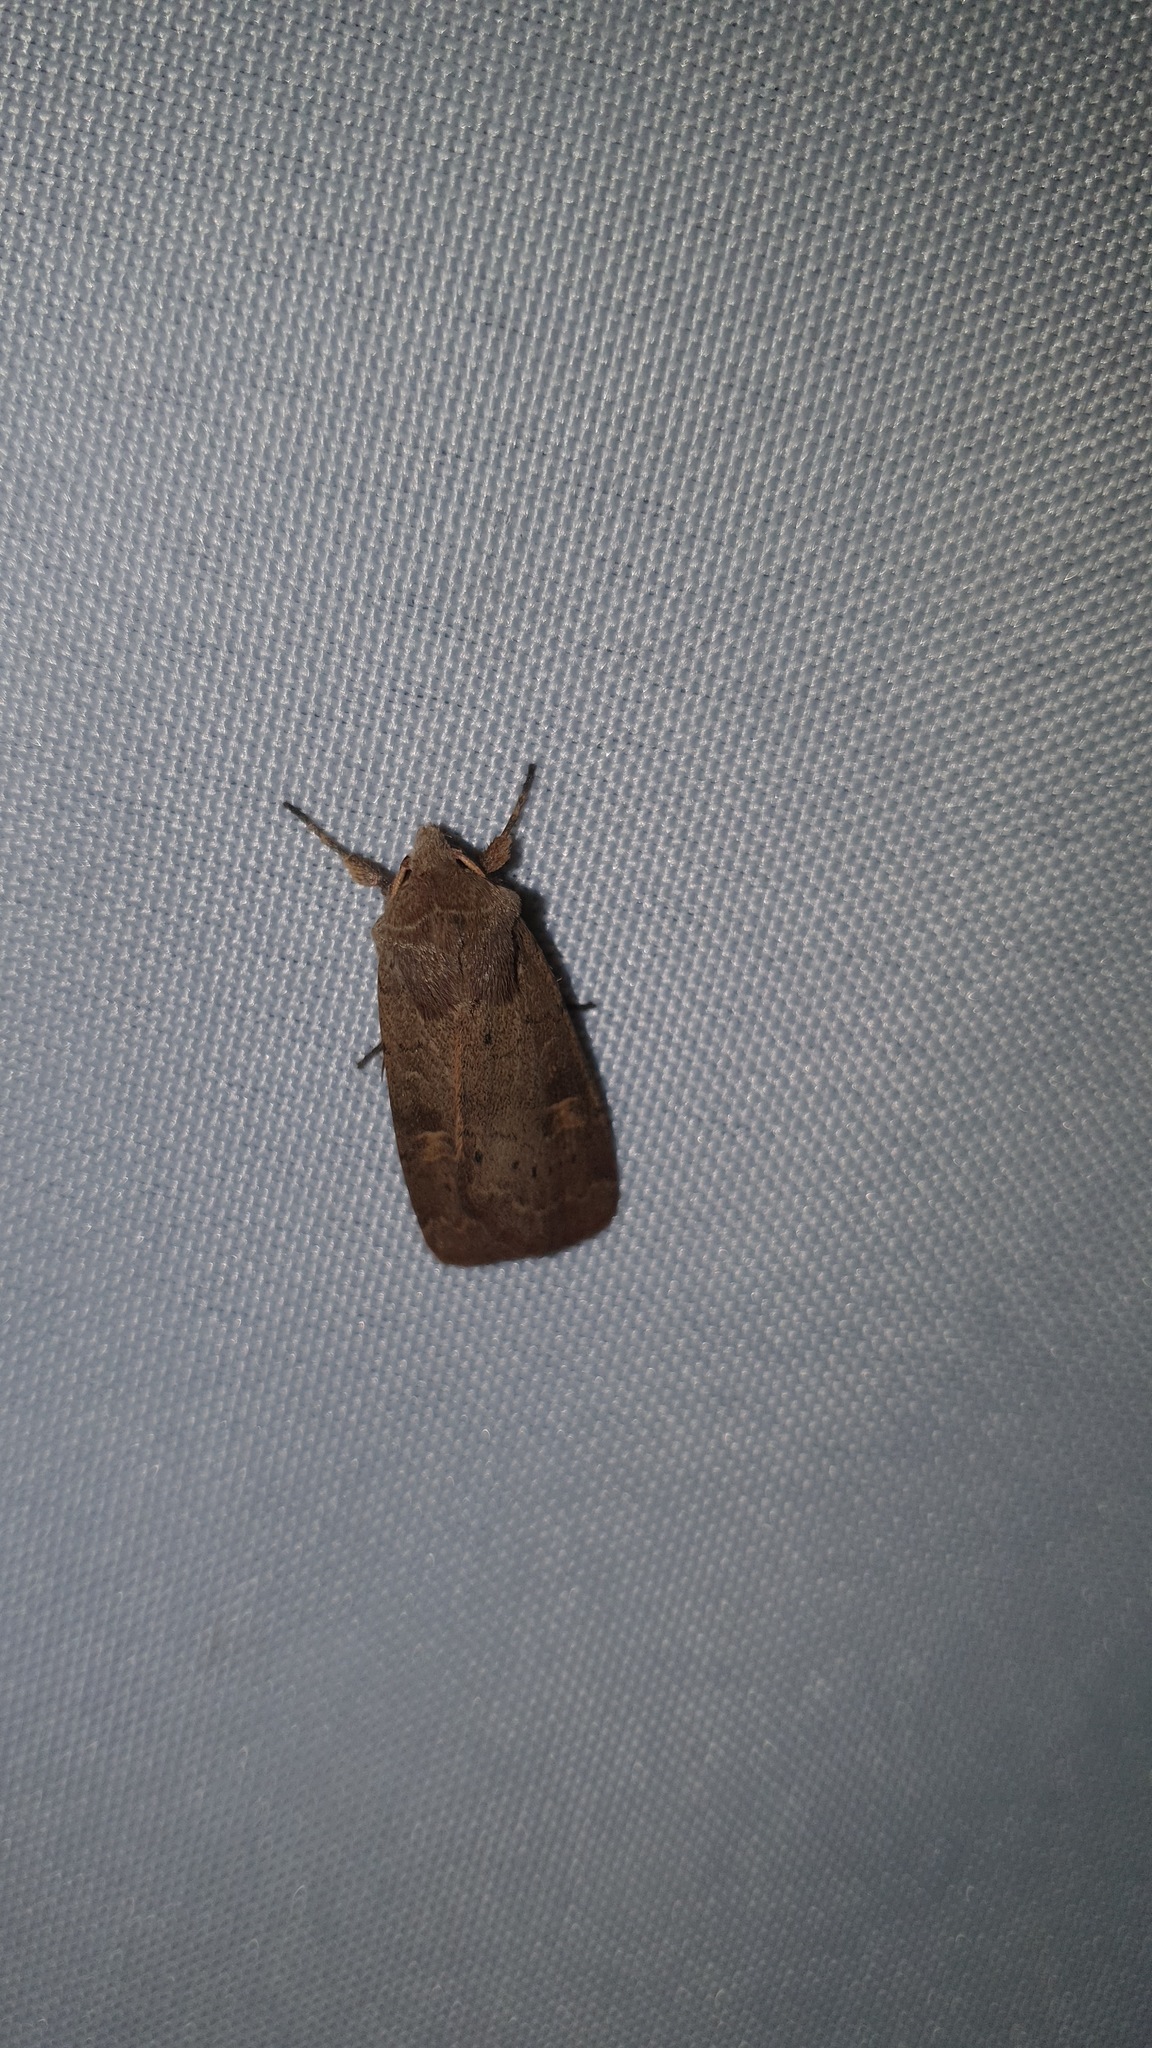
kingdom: Animalia
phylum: Arthropoda
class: Insecta
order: Lepidoptera
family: Noctuidae
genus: Xestia
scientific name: Xestia xanthographa
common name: Square-spot rustic
